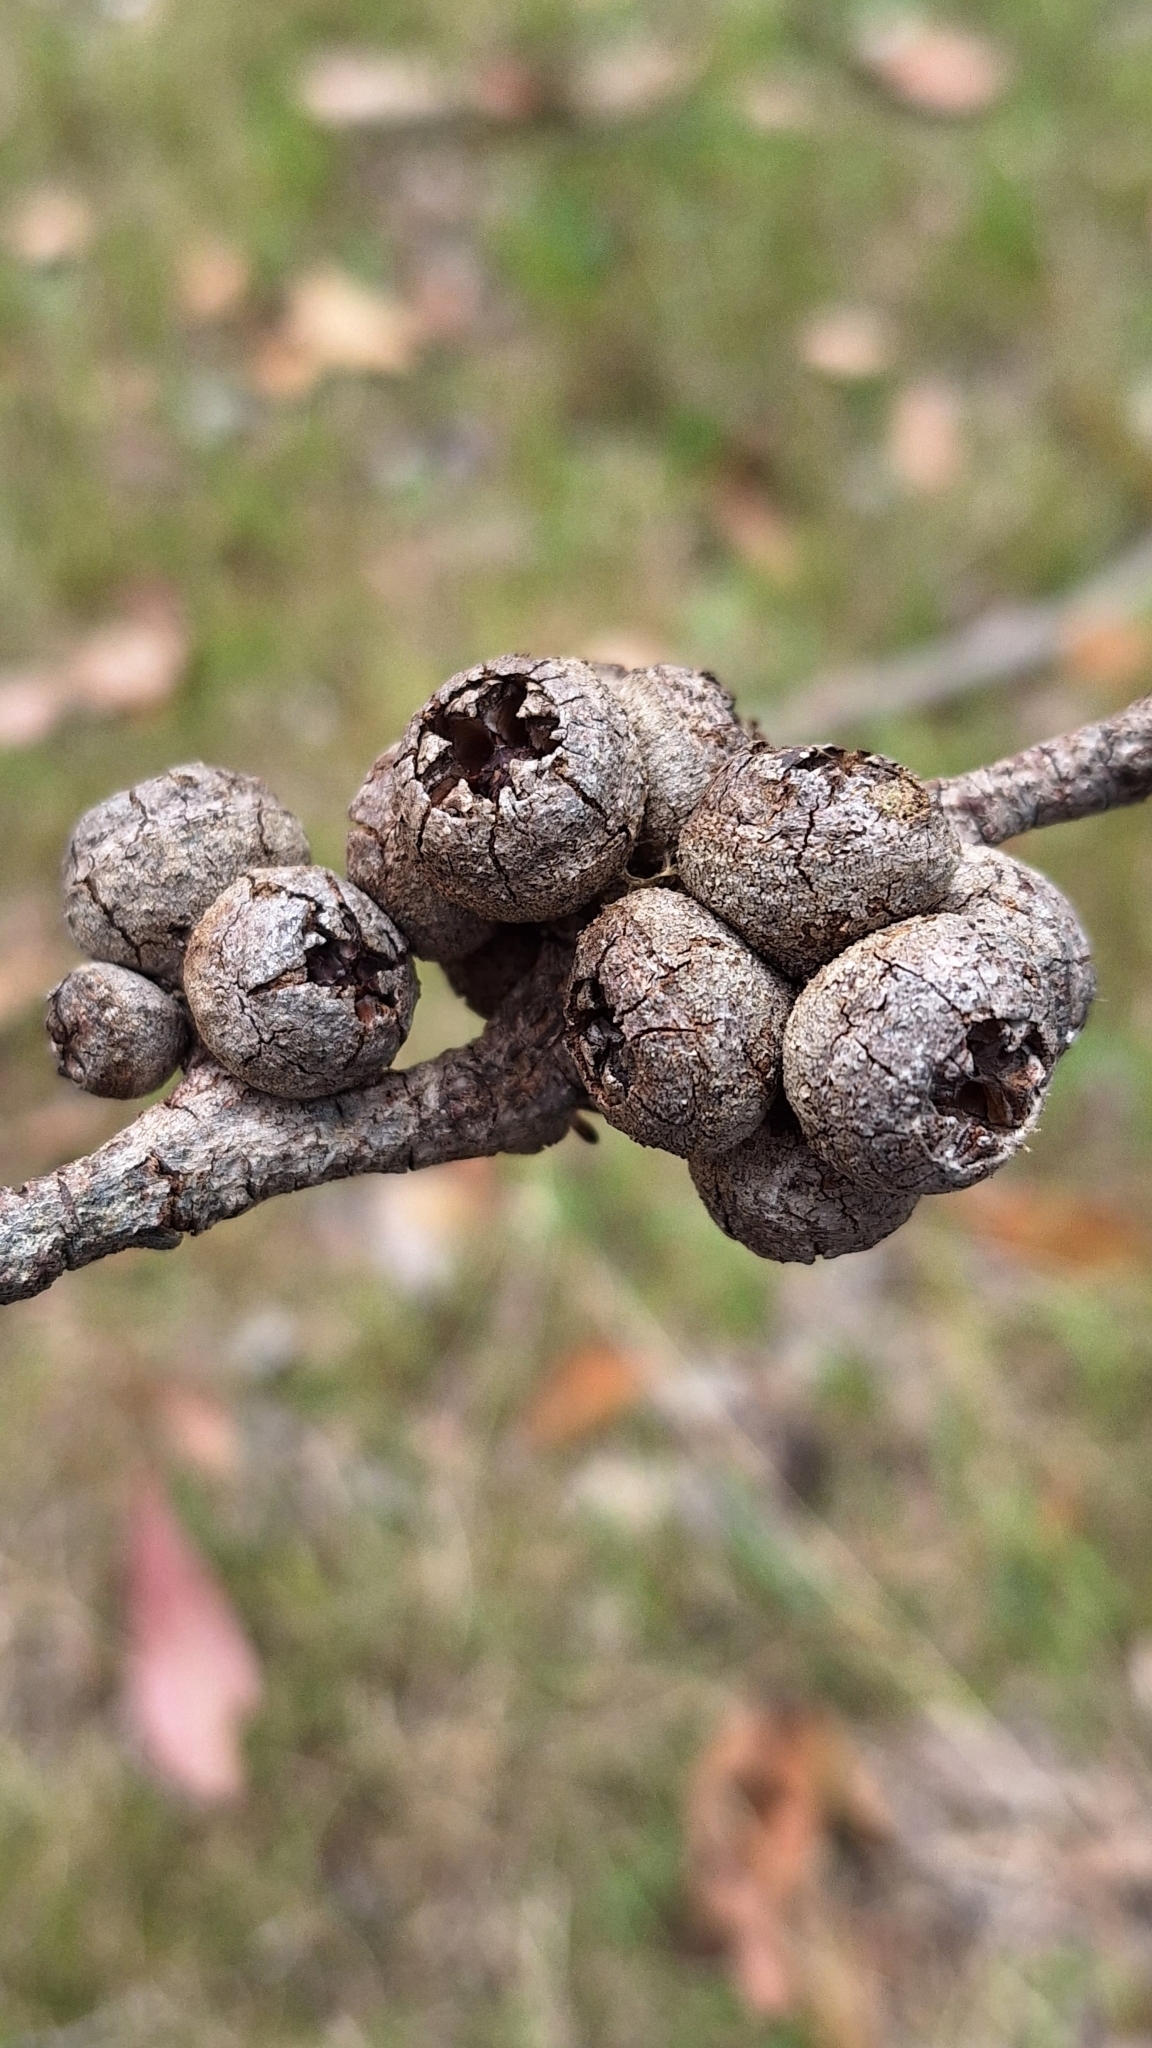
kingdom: Plantae
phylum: Tracheophyta
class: Magnoliopsida
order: Myrtales
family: Myrtaceae
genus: Eucalyptus
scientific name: Eucalyptus baxteri
